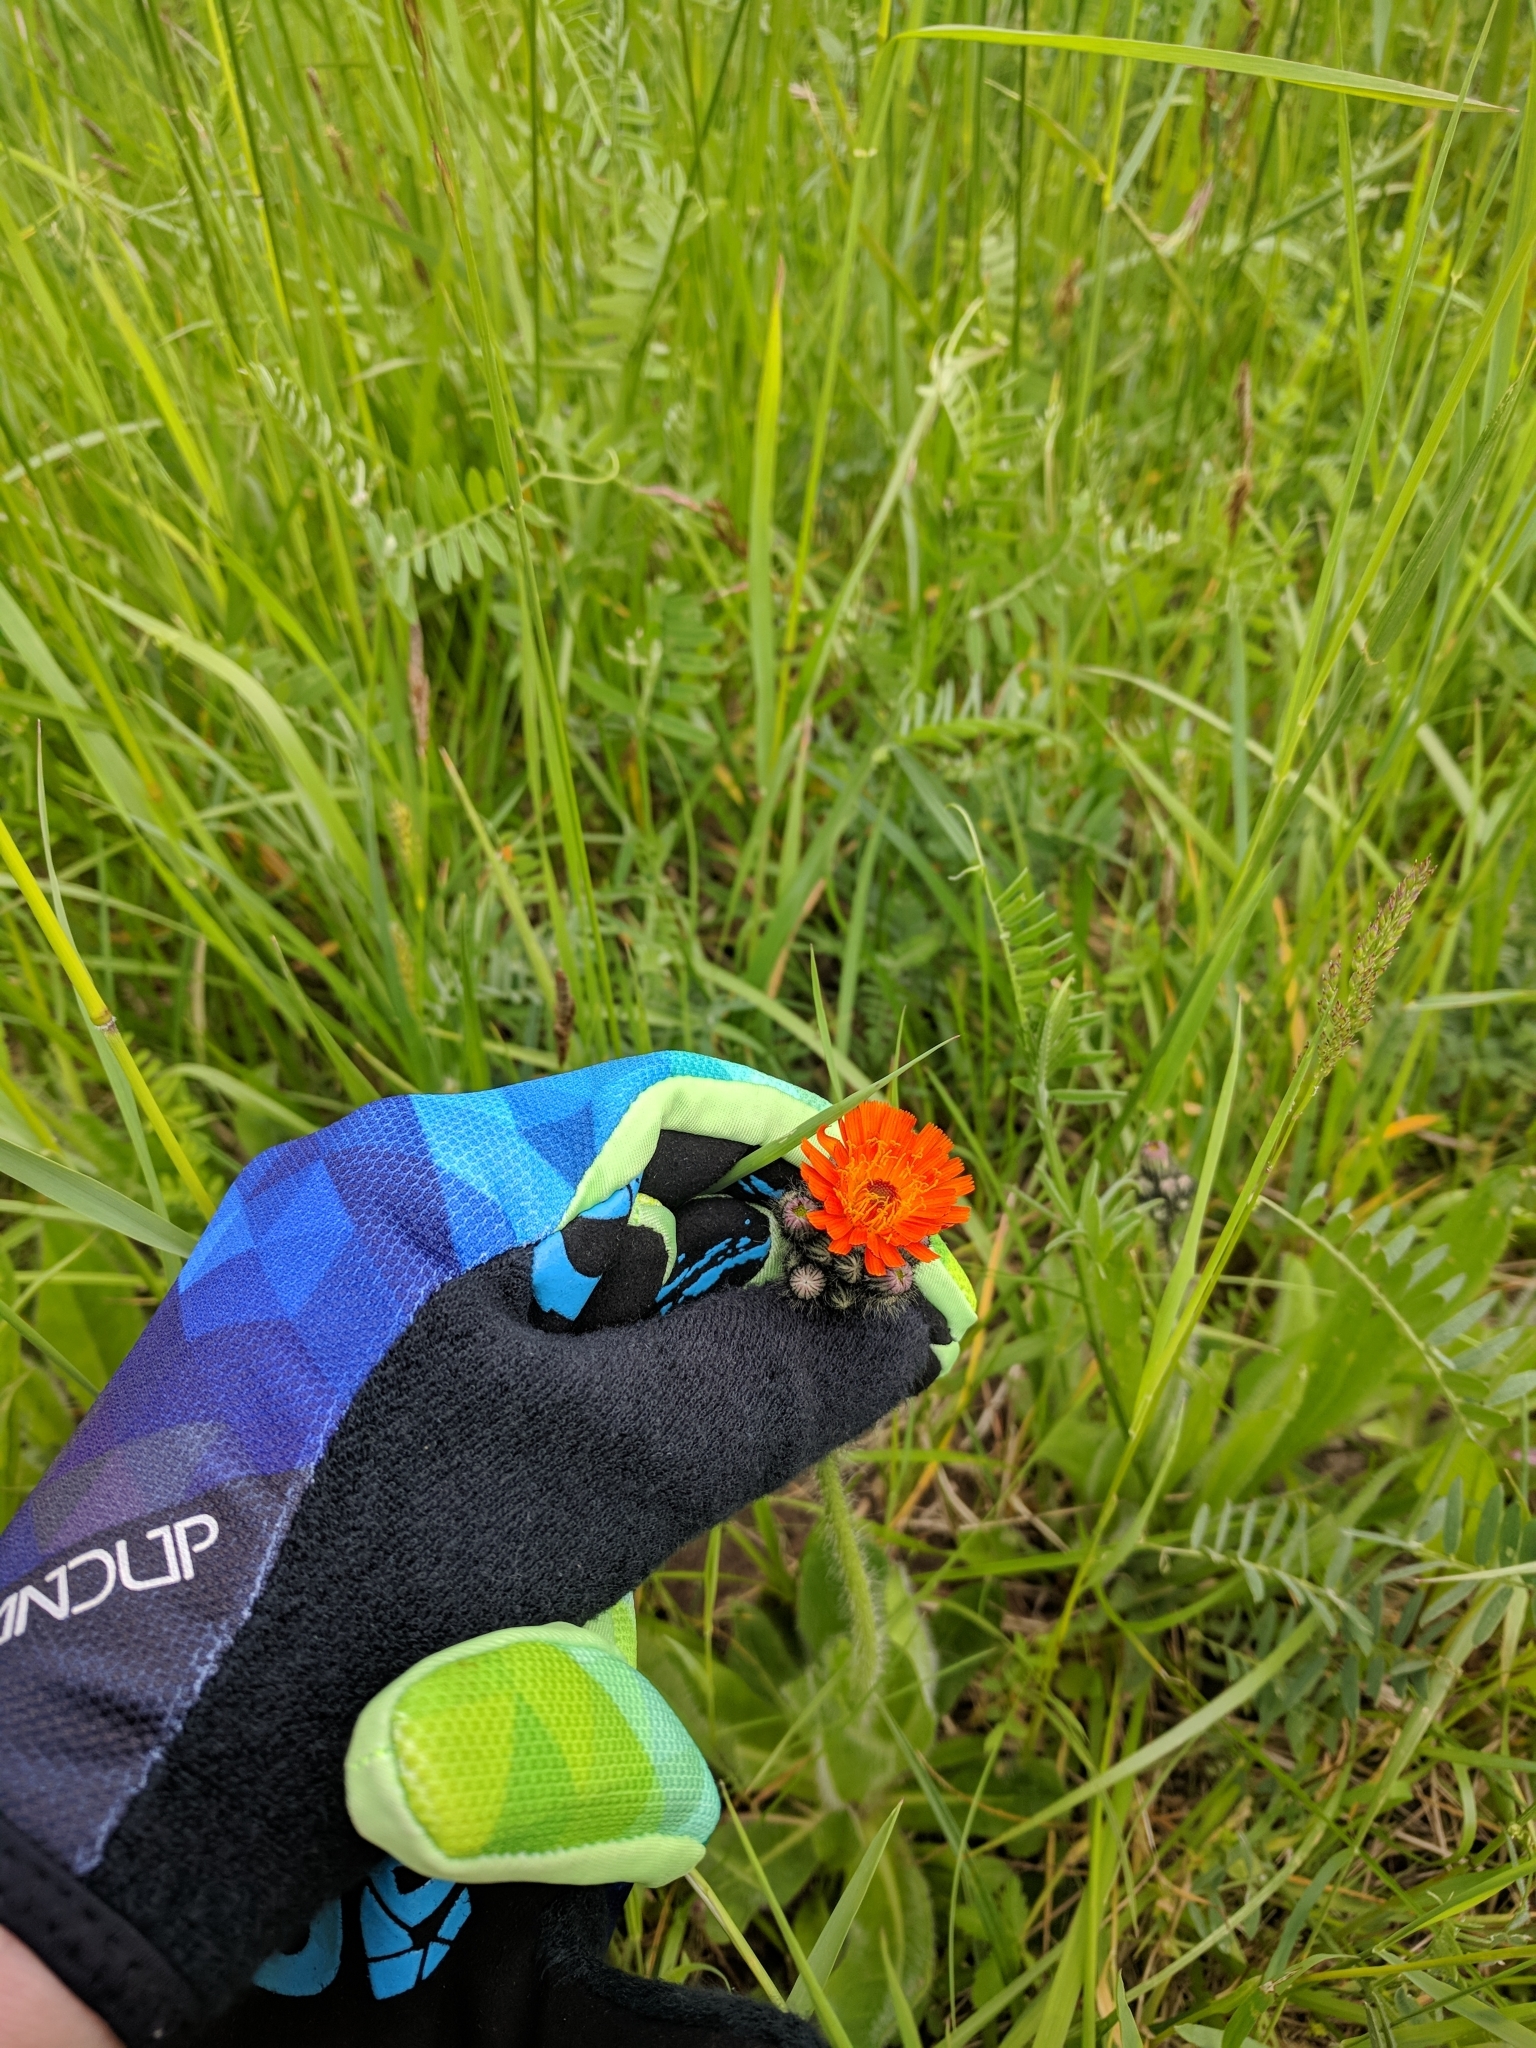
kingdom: Plantae
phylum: Tracheophyta
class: Magnoliopsida
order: Asterales
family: Asteraceae
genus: Pilosella
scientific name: Pilosella aurantiaca
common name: Fox-and-cubs
